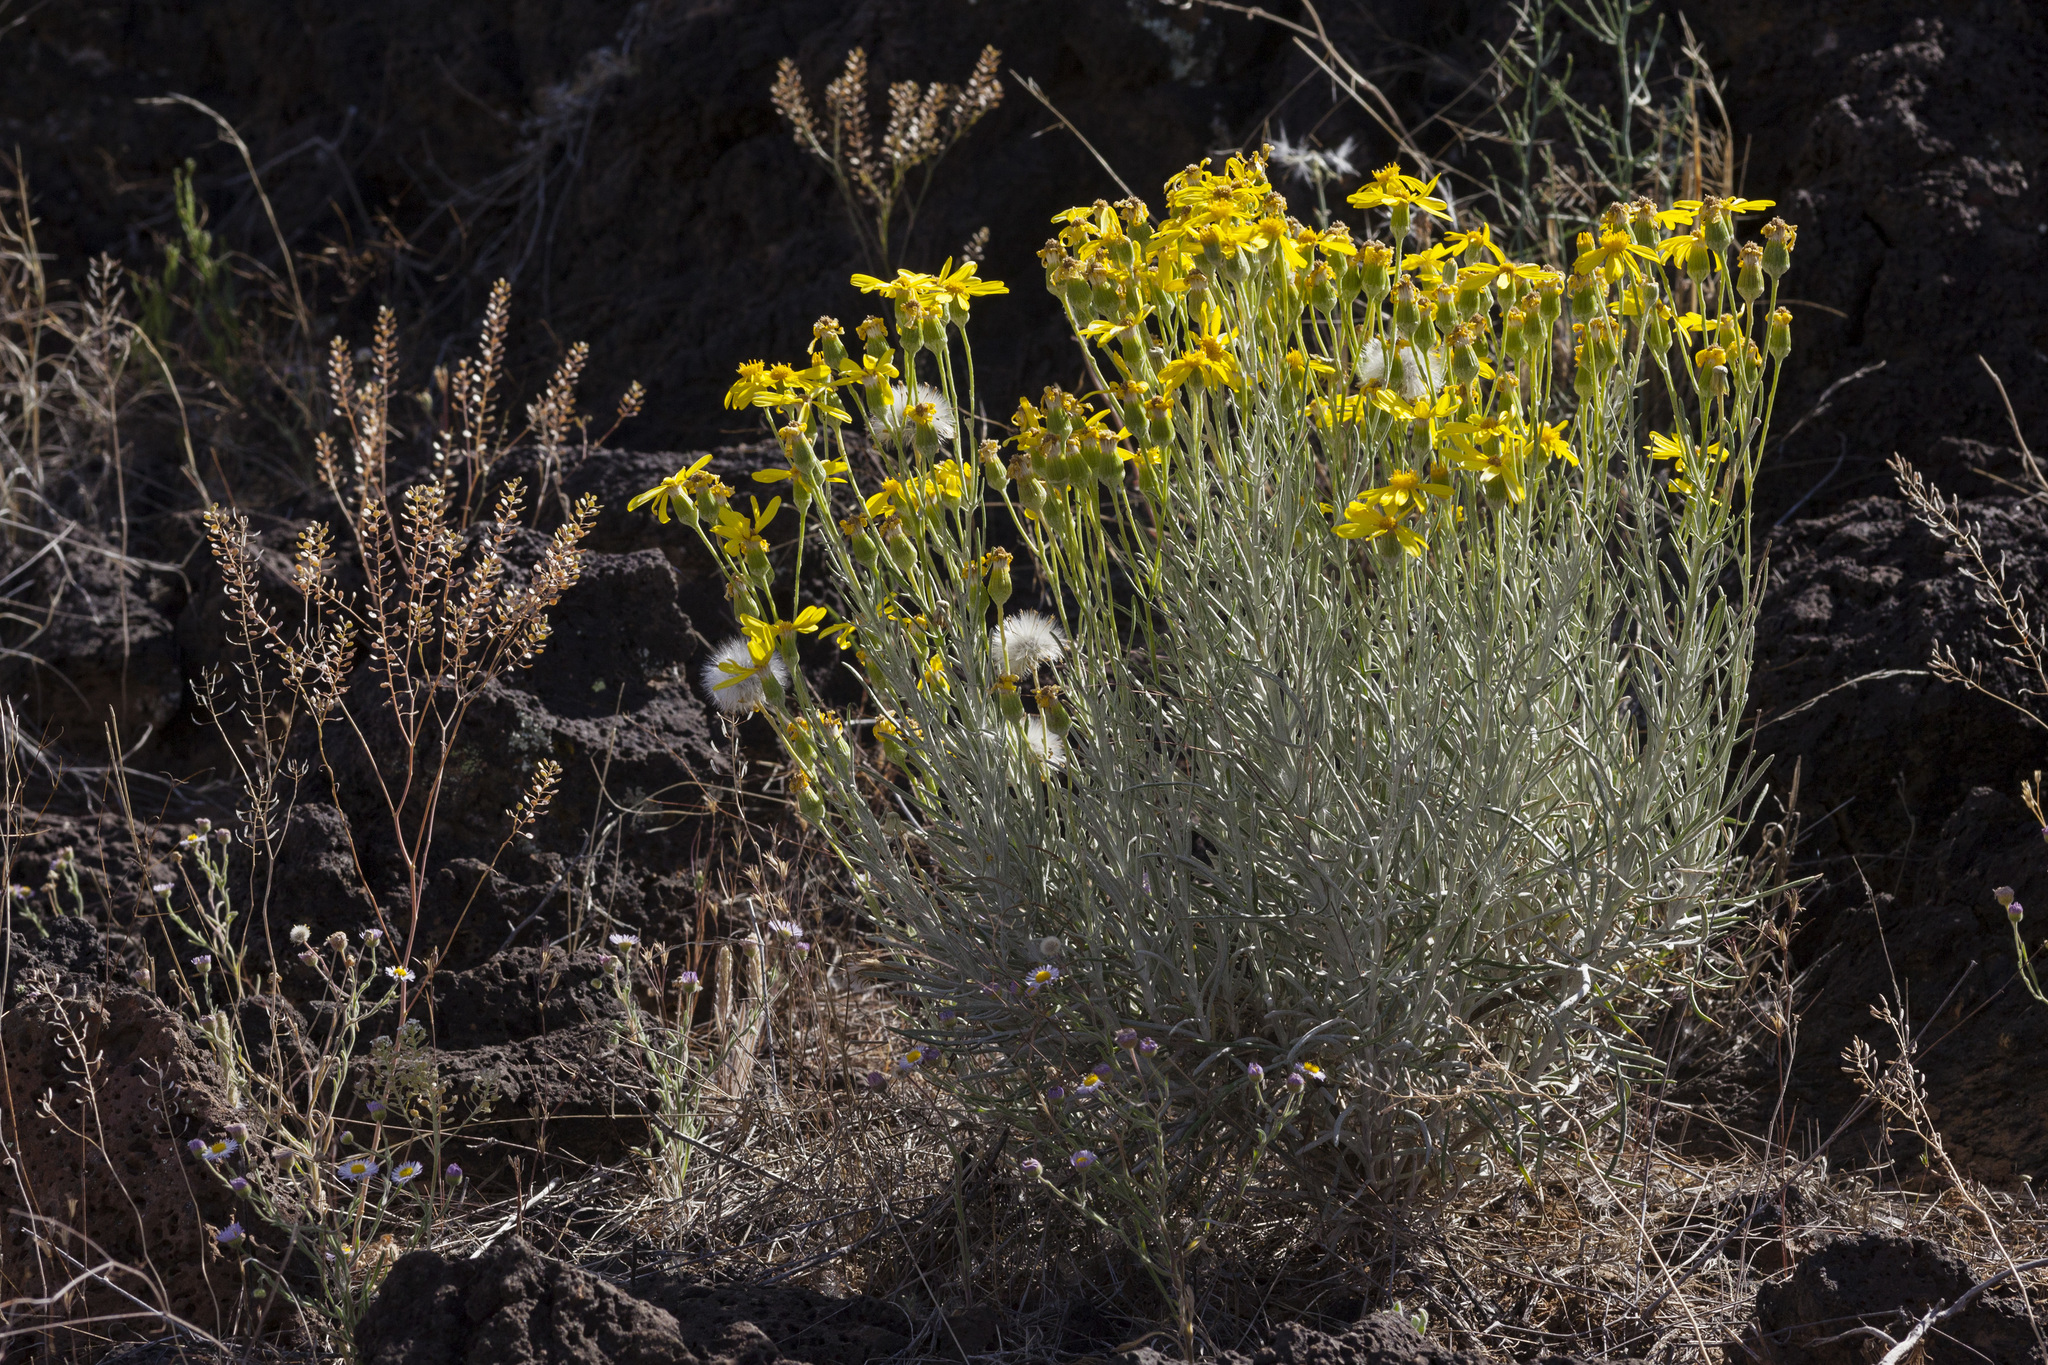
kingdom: Plantae
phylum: Tracheophyta
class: Magnoliopsida
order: Asterales
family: Asteraceae
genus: Senecio
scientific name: Senecio flaccidus
